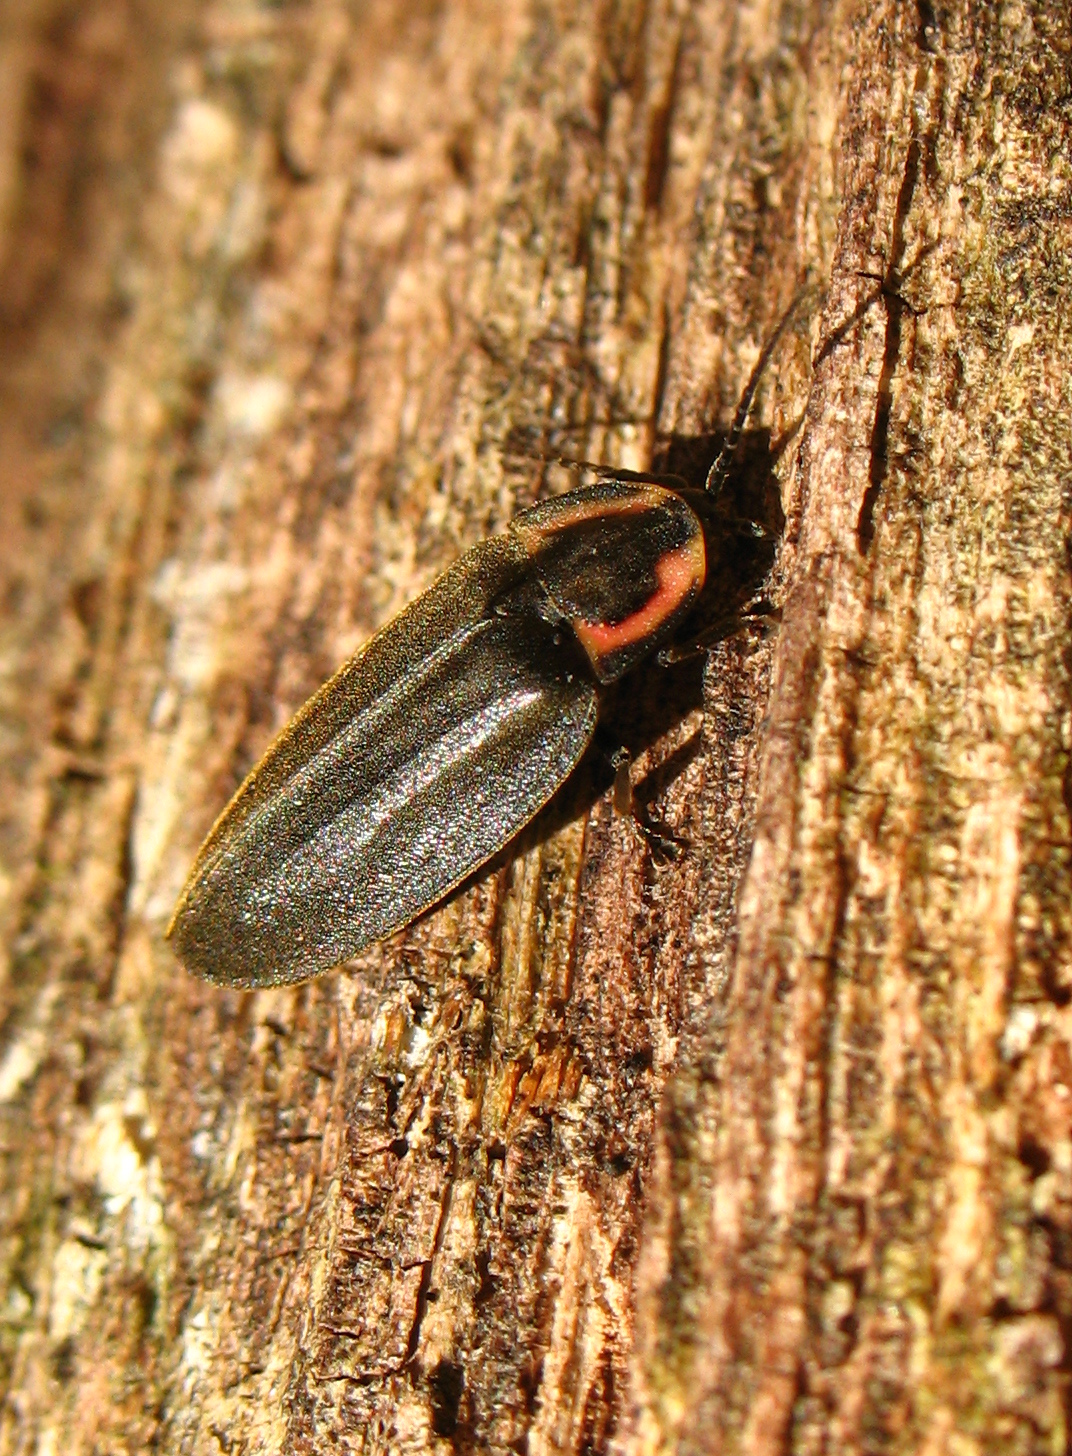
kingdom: Animalia
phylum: Arthropoda
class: Insecta
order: Coleoptera
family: Lampyridae
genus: Photinus
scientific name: Photinus corrusca
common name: Winter firefly
